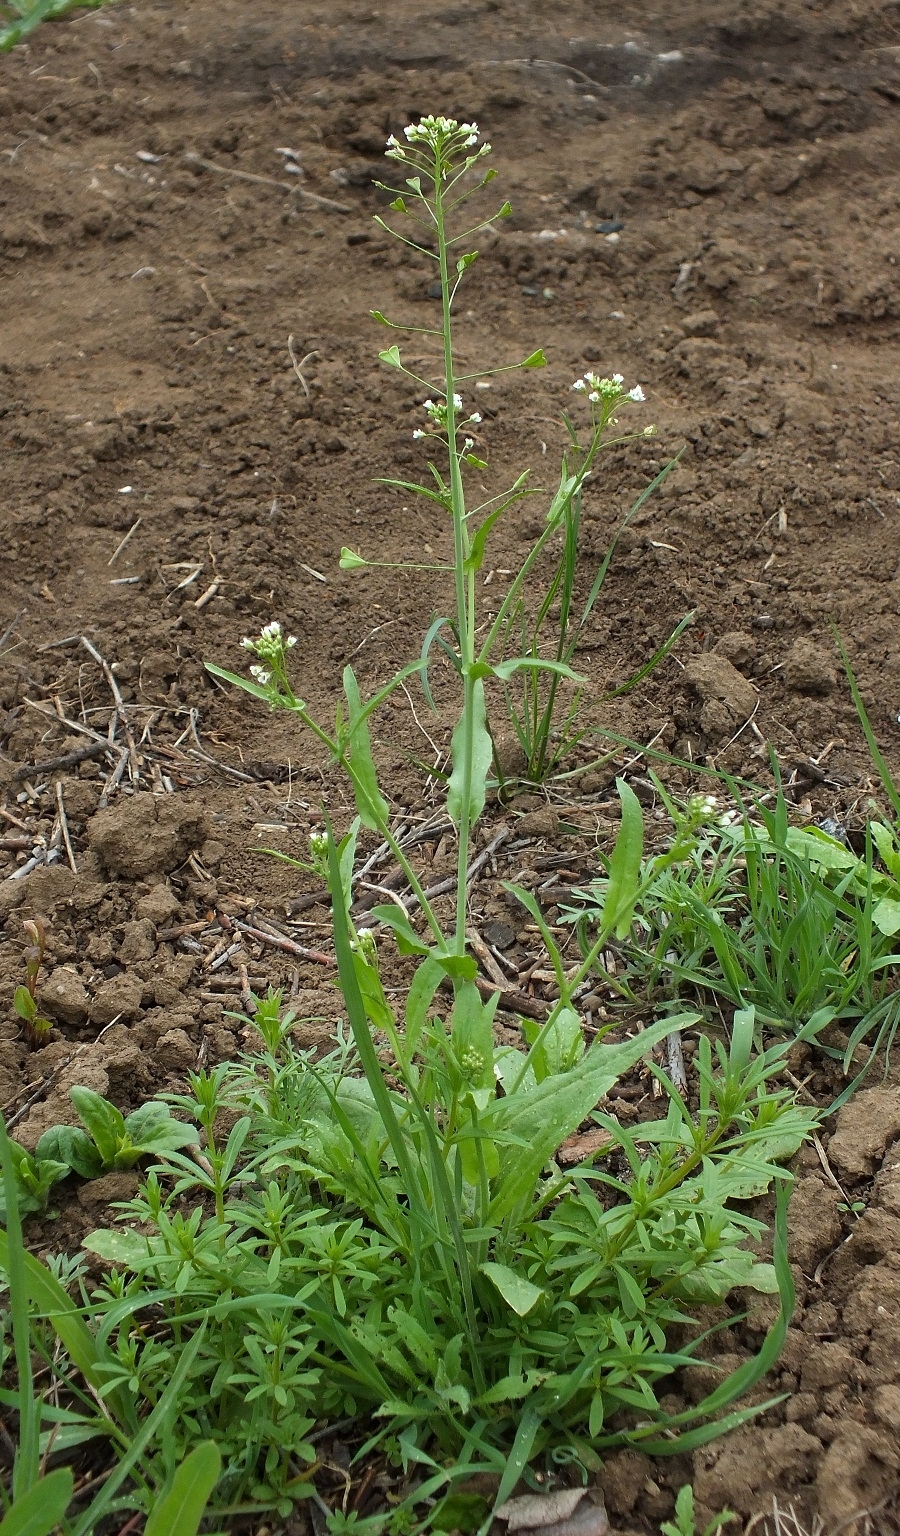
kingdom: Plantae
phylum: Tracheophyta
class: Magnoliopsida
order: Brassicales
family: Brassicaceae
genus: Capsella
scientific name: Capsella bursa-pastoris
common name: Shepherd's purse
